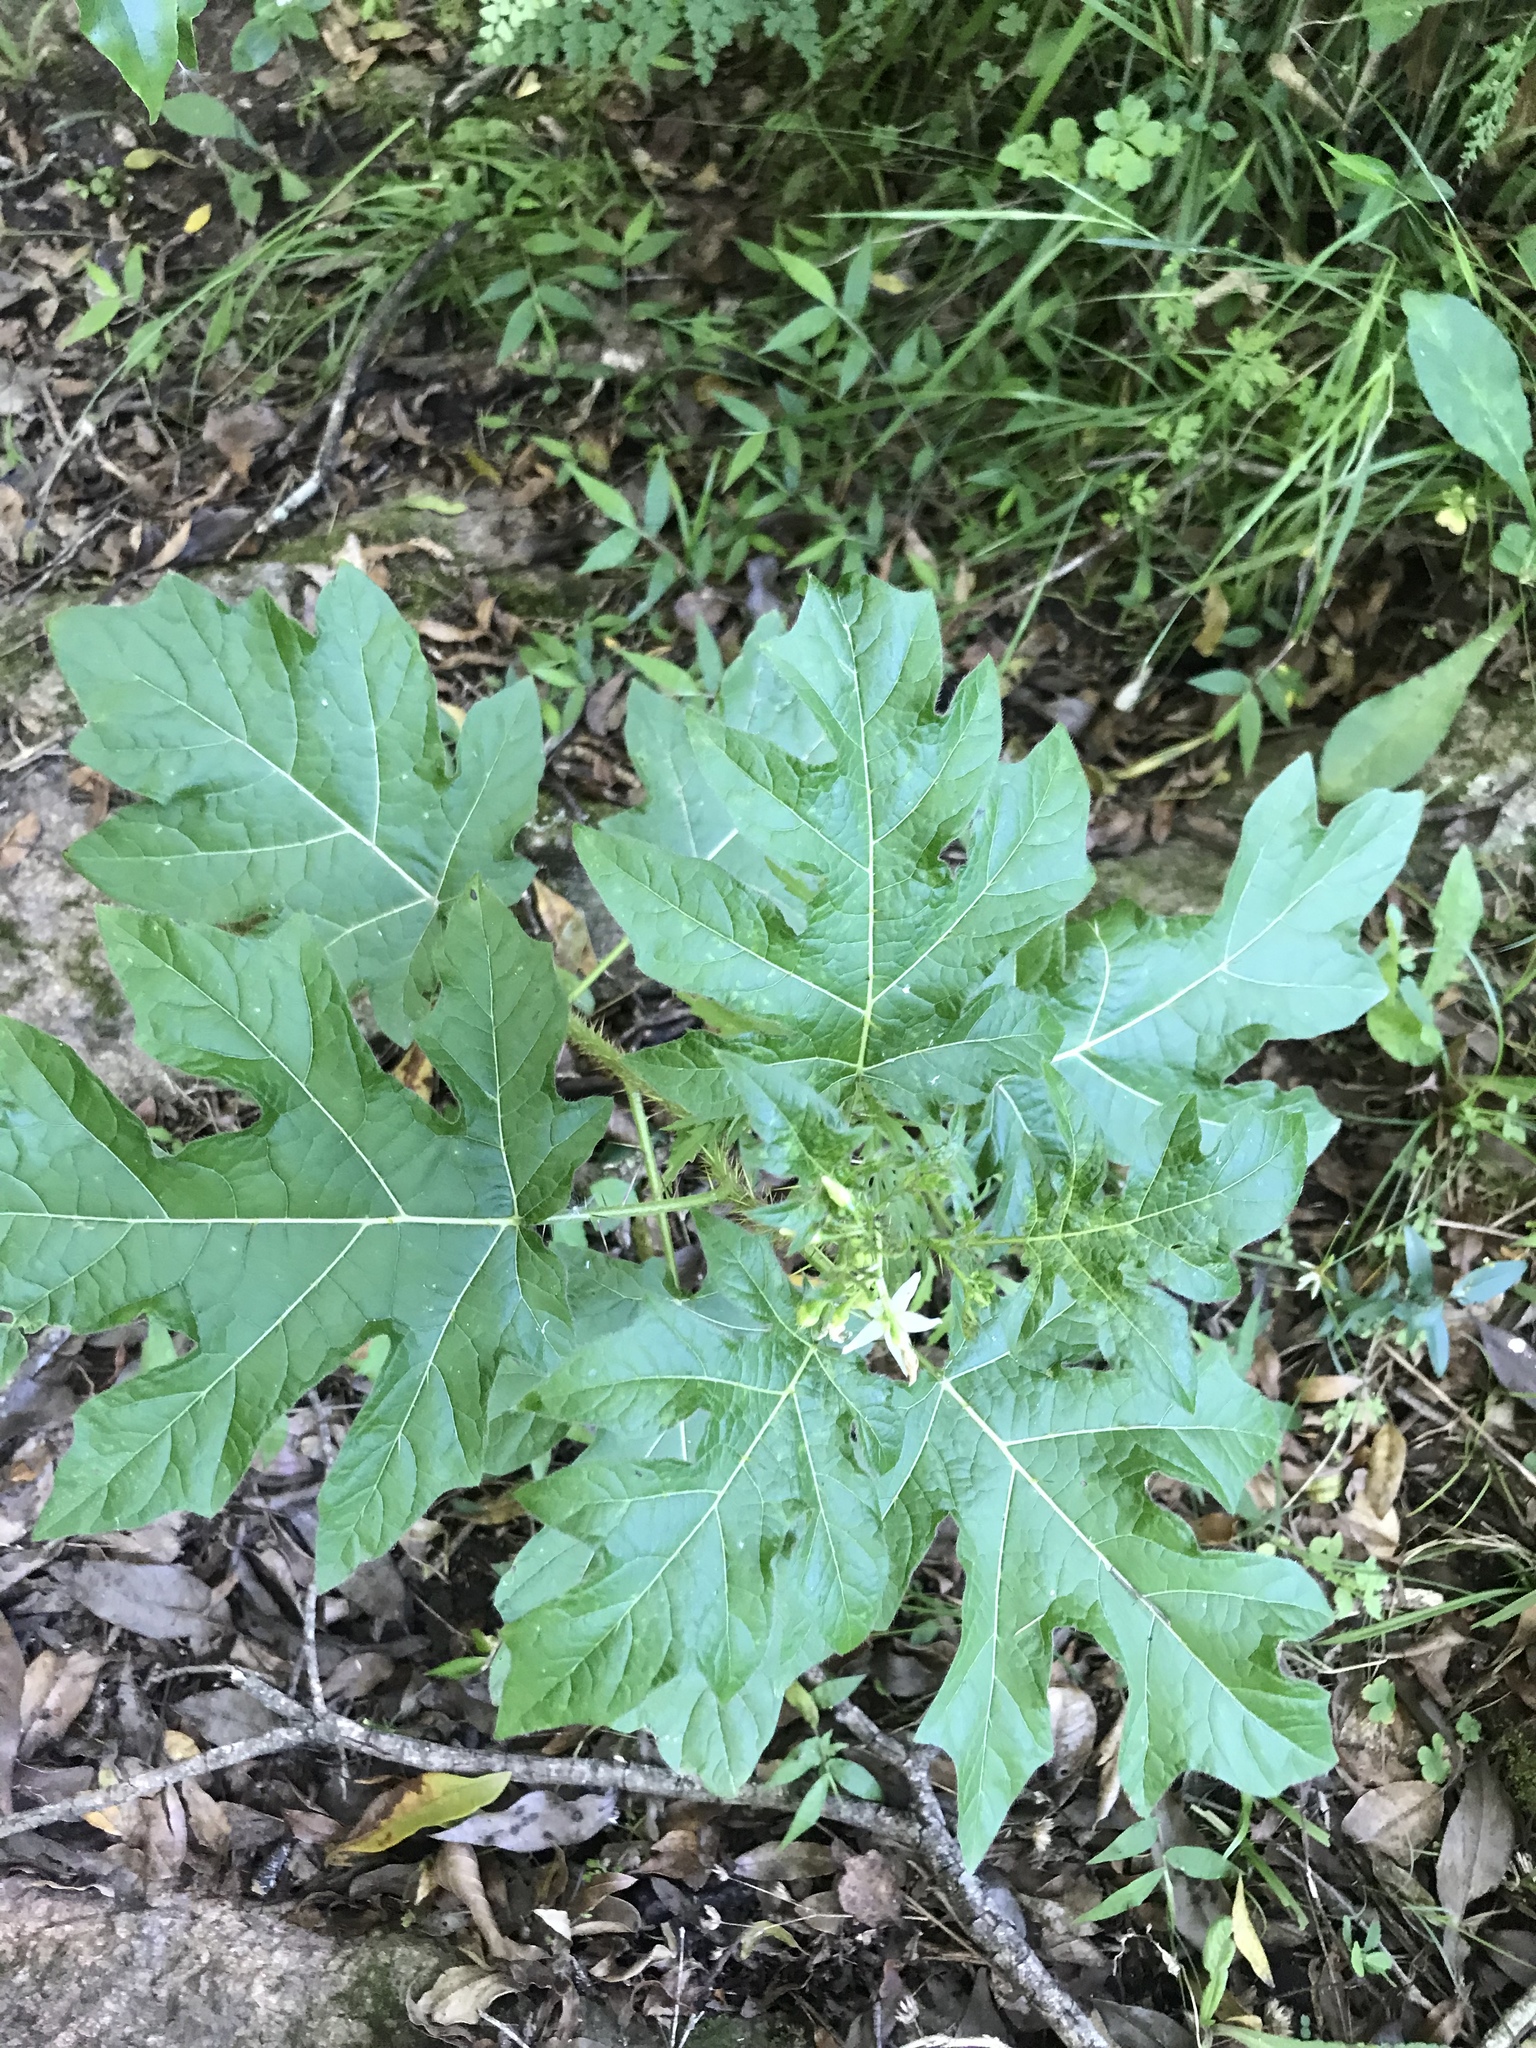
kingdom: Plantae
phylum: Tracheophyta
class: Magnoliopsida
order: Solanales
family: Solanaceae
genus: Solanum
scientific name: Solanum atropurpureum
